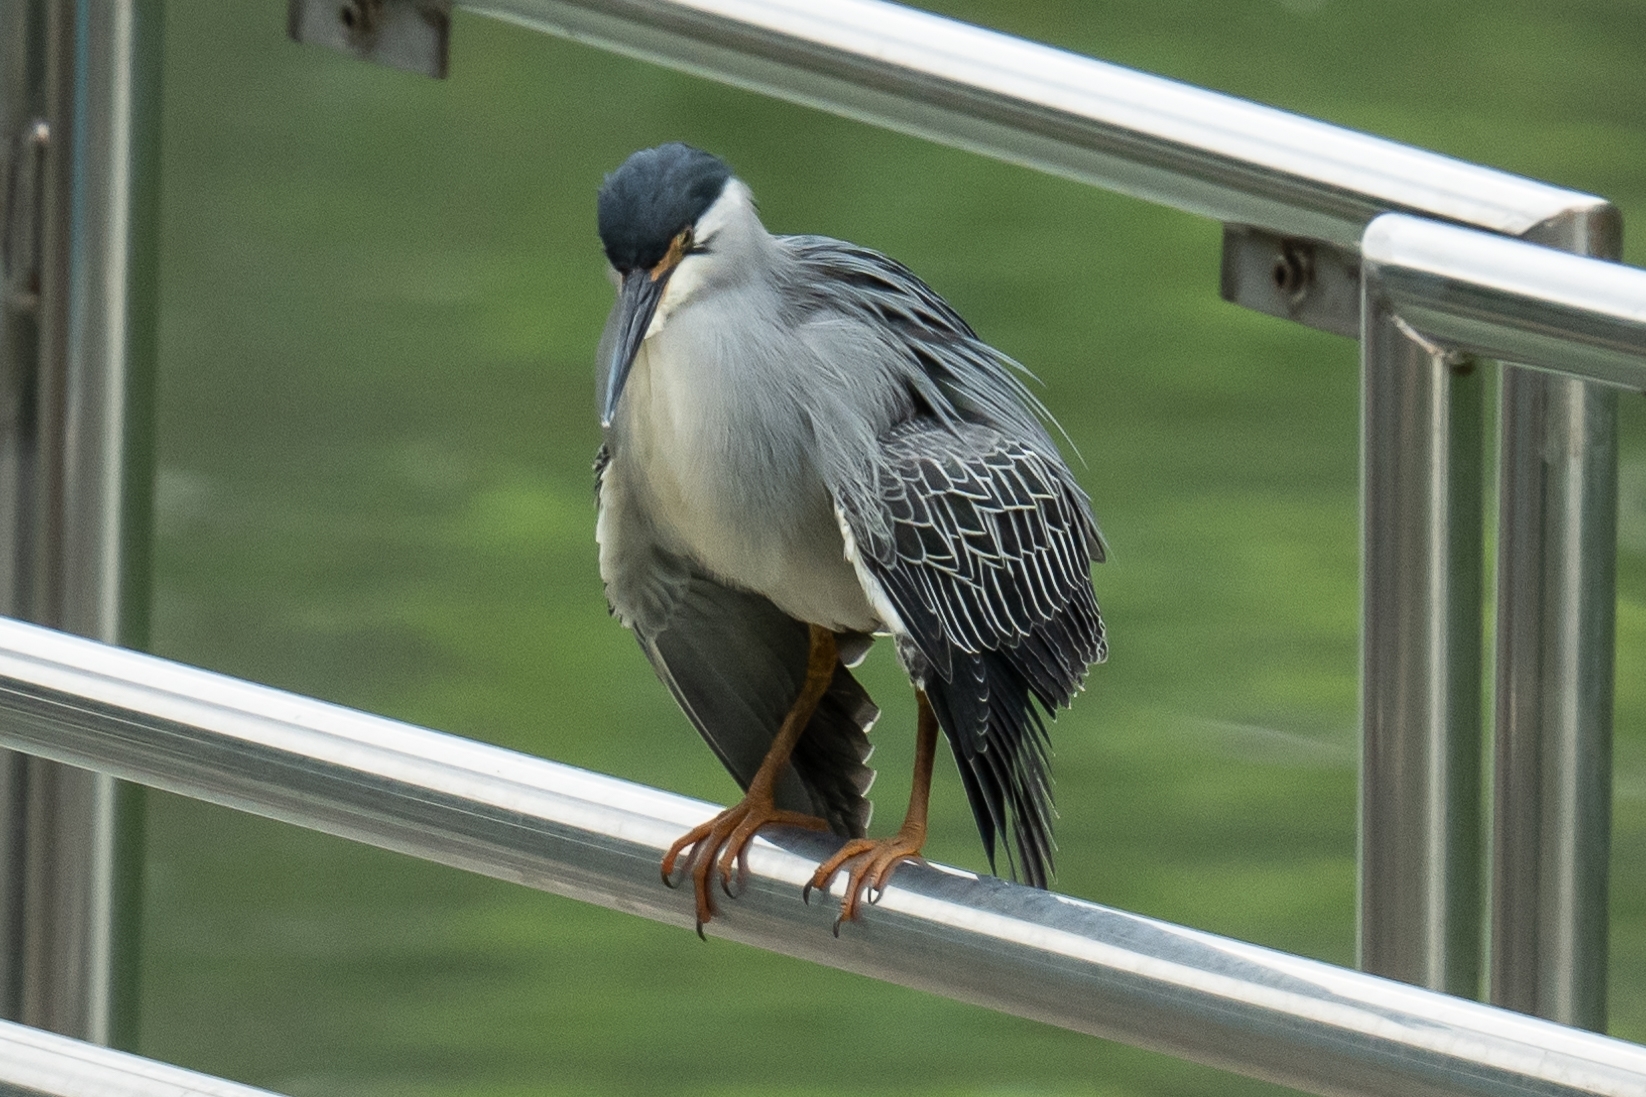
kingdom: Animalia
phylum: Chordata
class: Aves
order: Pelecaniformes
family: Ardeidae
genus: Butorides
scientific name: Butorides striata
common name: Striated heron
